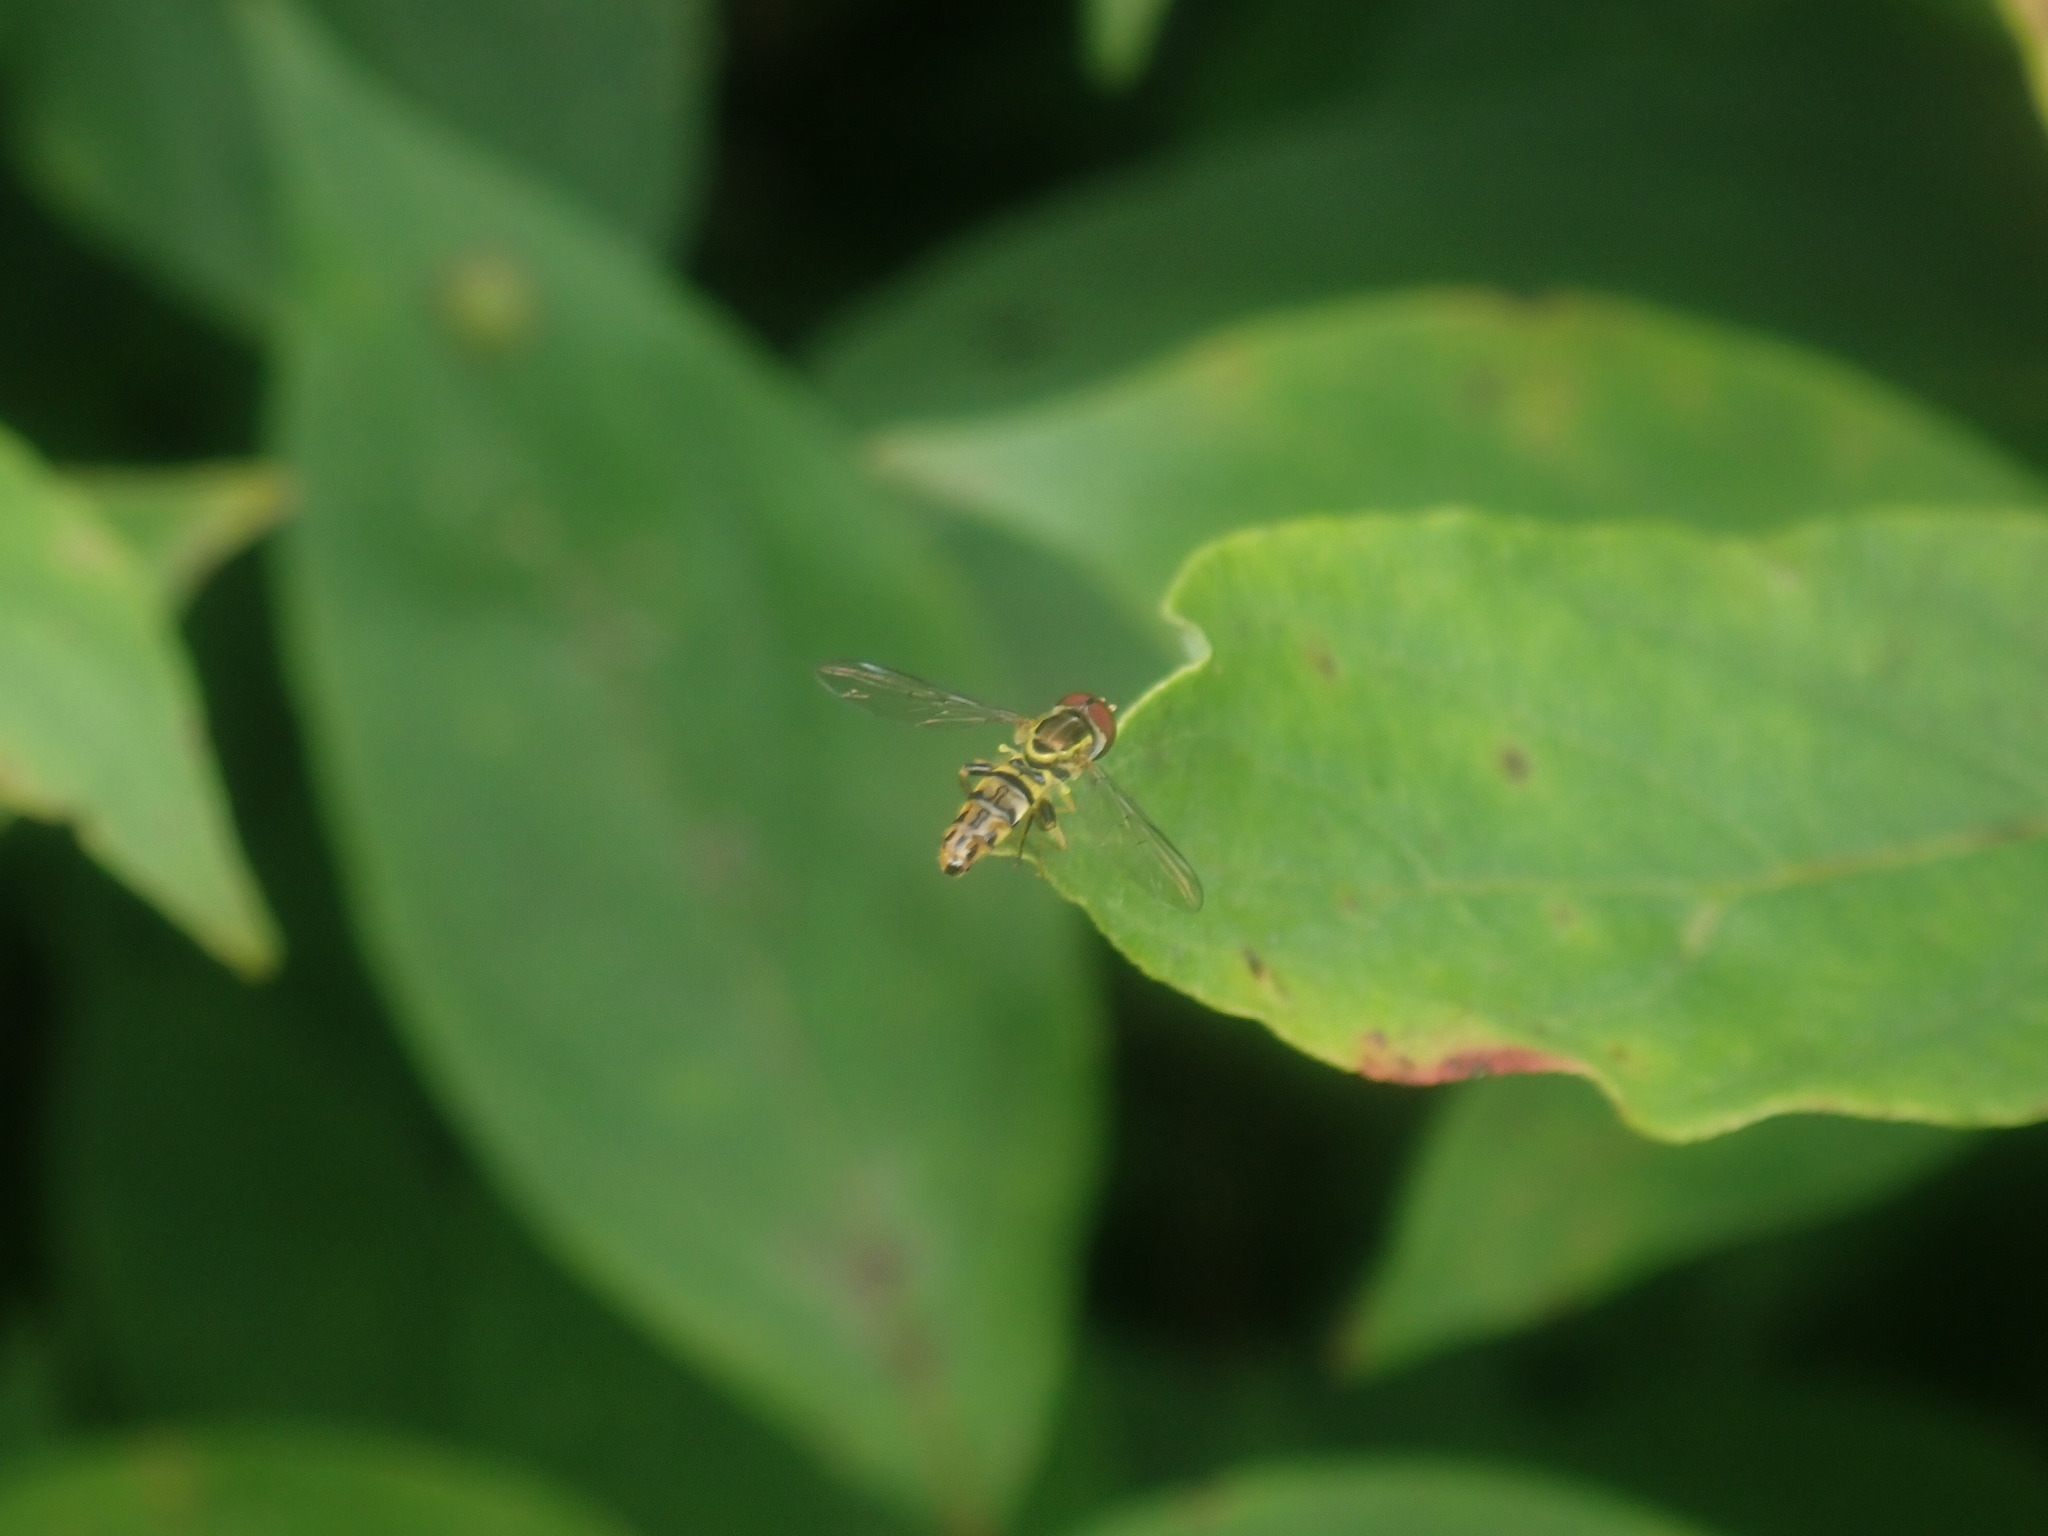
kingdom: Animalia
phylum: Arthropoda
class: Insecta
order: Diptera
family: Syrphidae
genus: Toxomerus
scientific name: Toxomerus geminatus
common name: Eastern calligrapher
